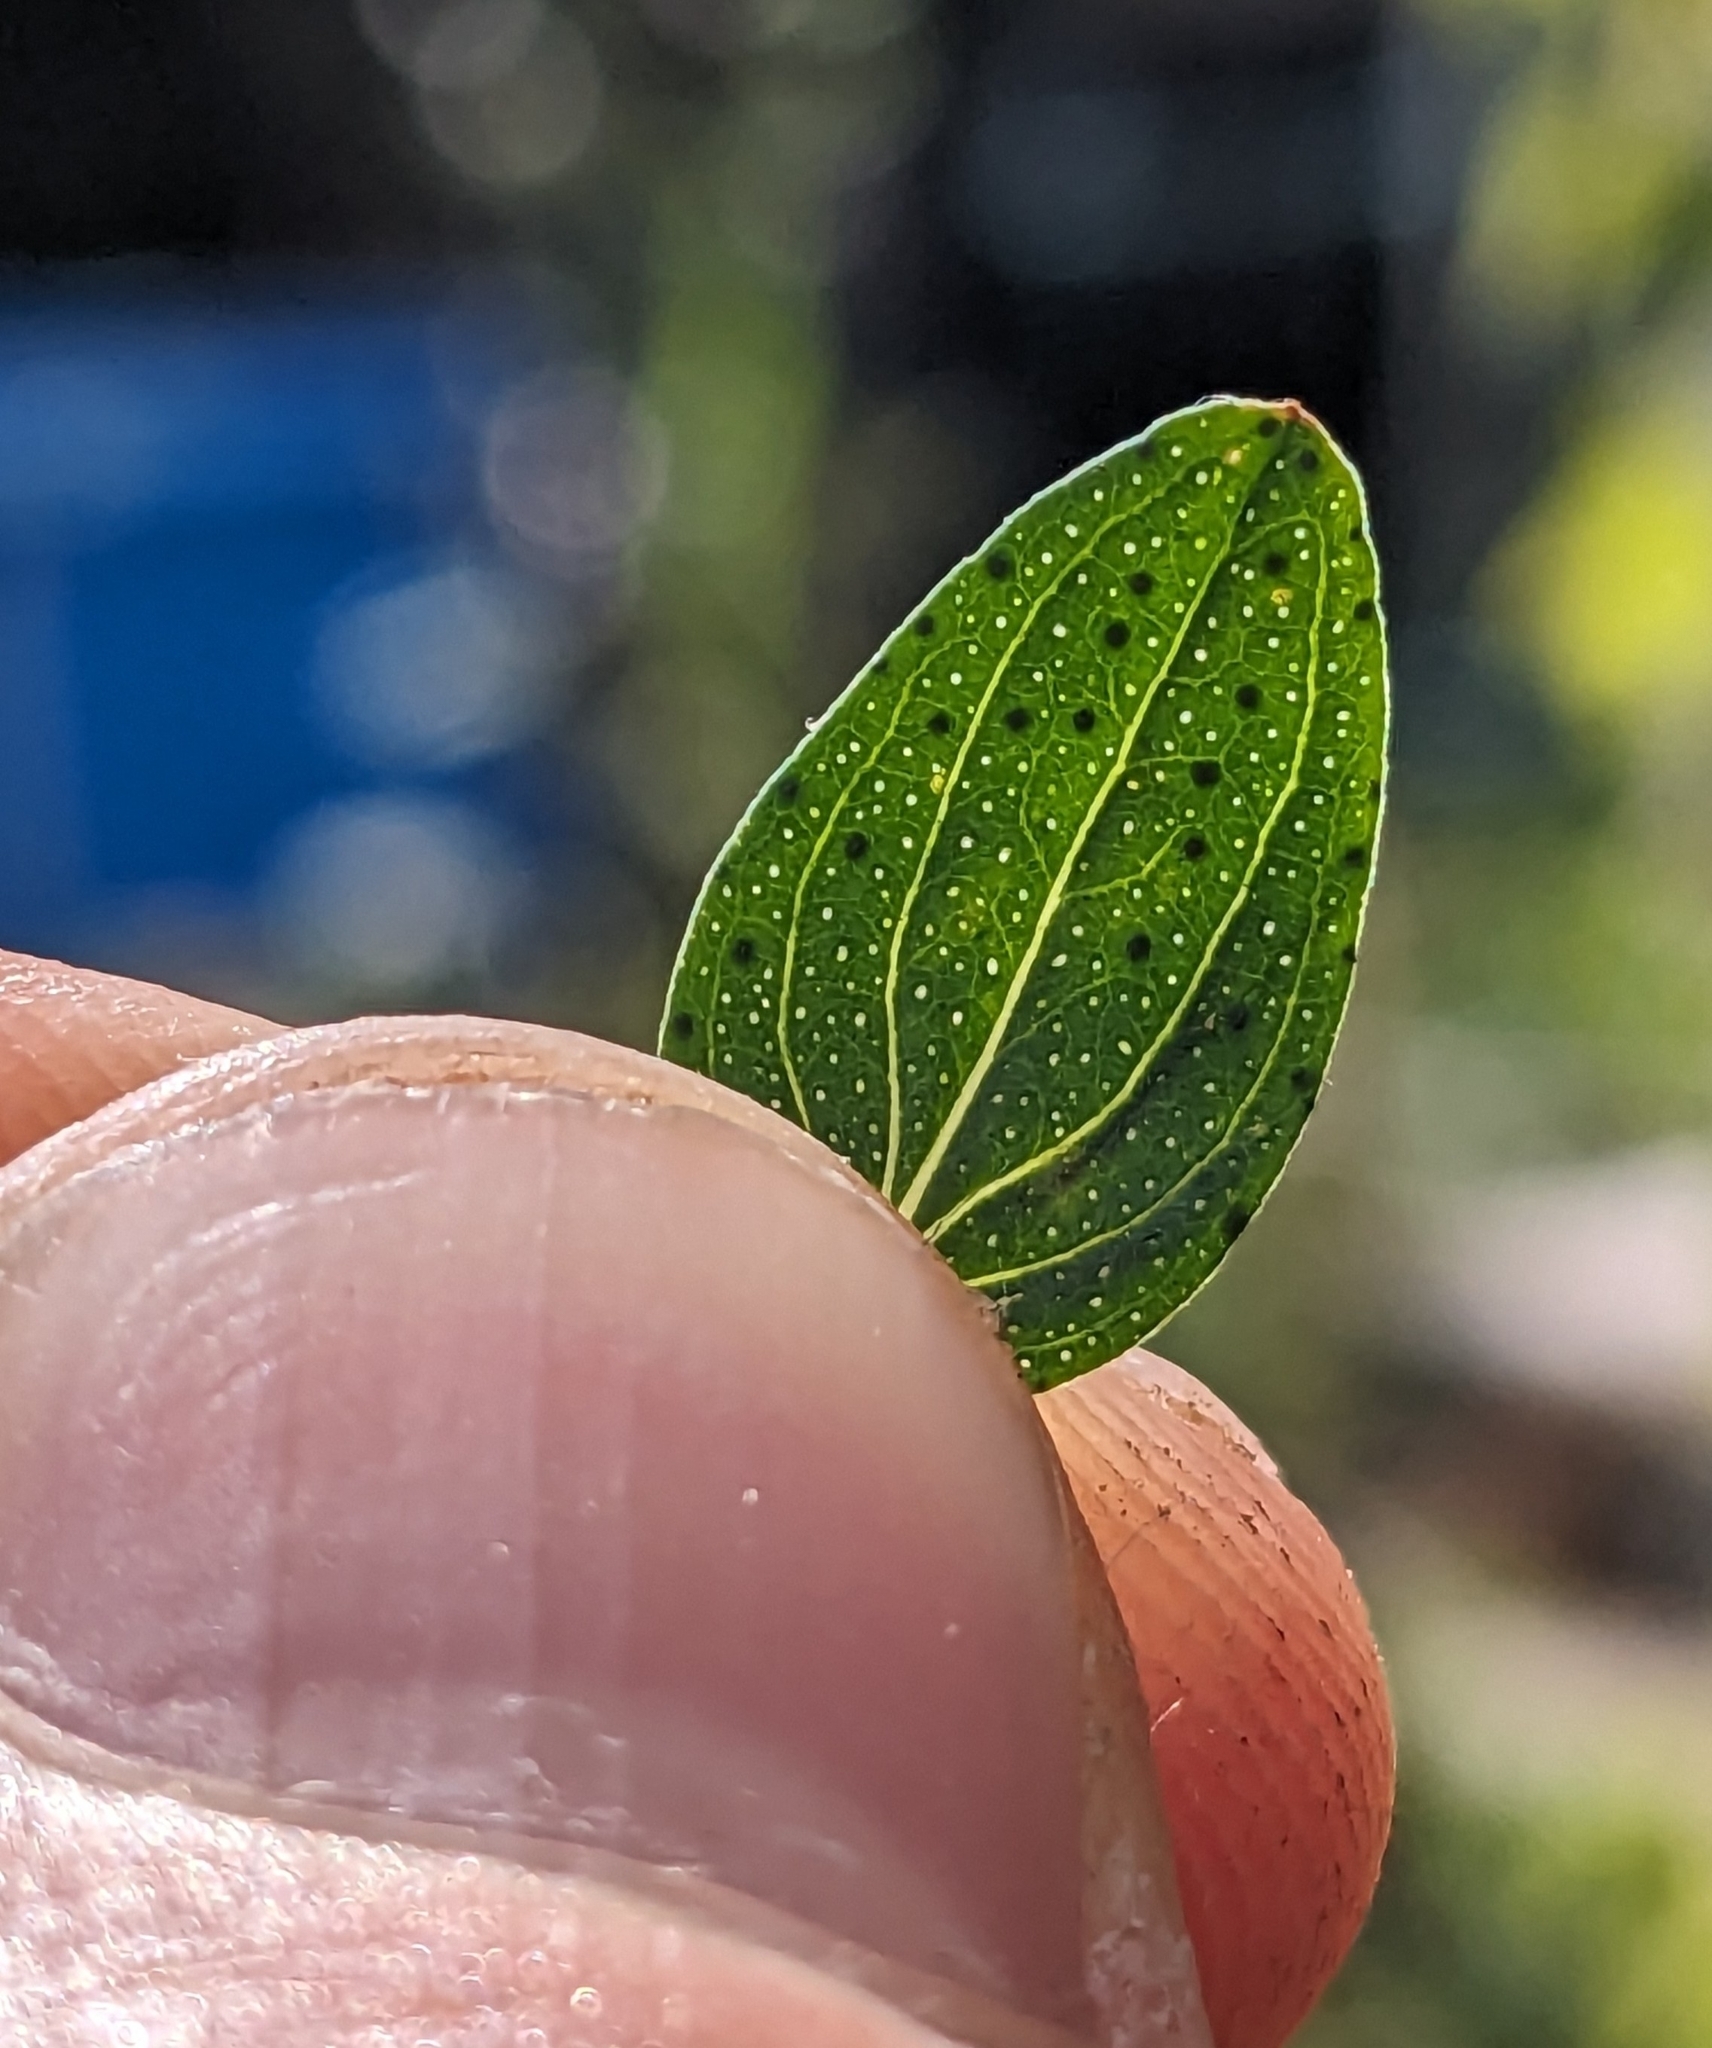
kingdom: Plantae
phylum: Tracheophyta
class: Magnoliopsida
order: Malpighiales
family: Hypericaceae
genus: Hypericum
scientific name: Hypericum perforatum
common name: Common st. johnswort
